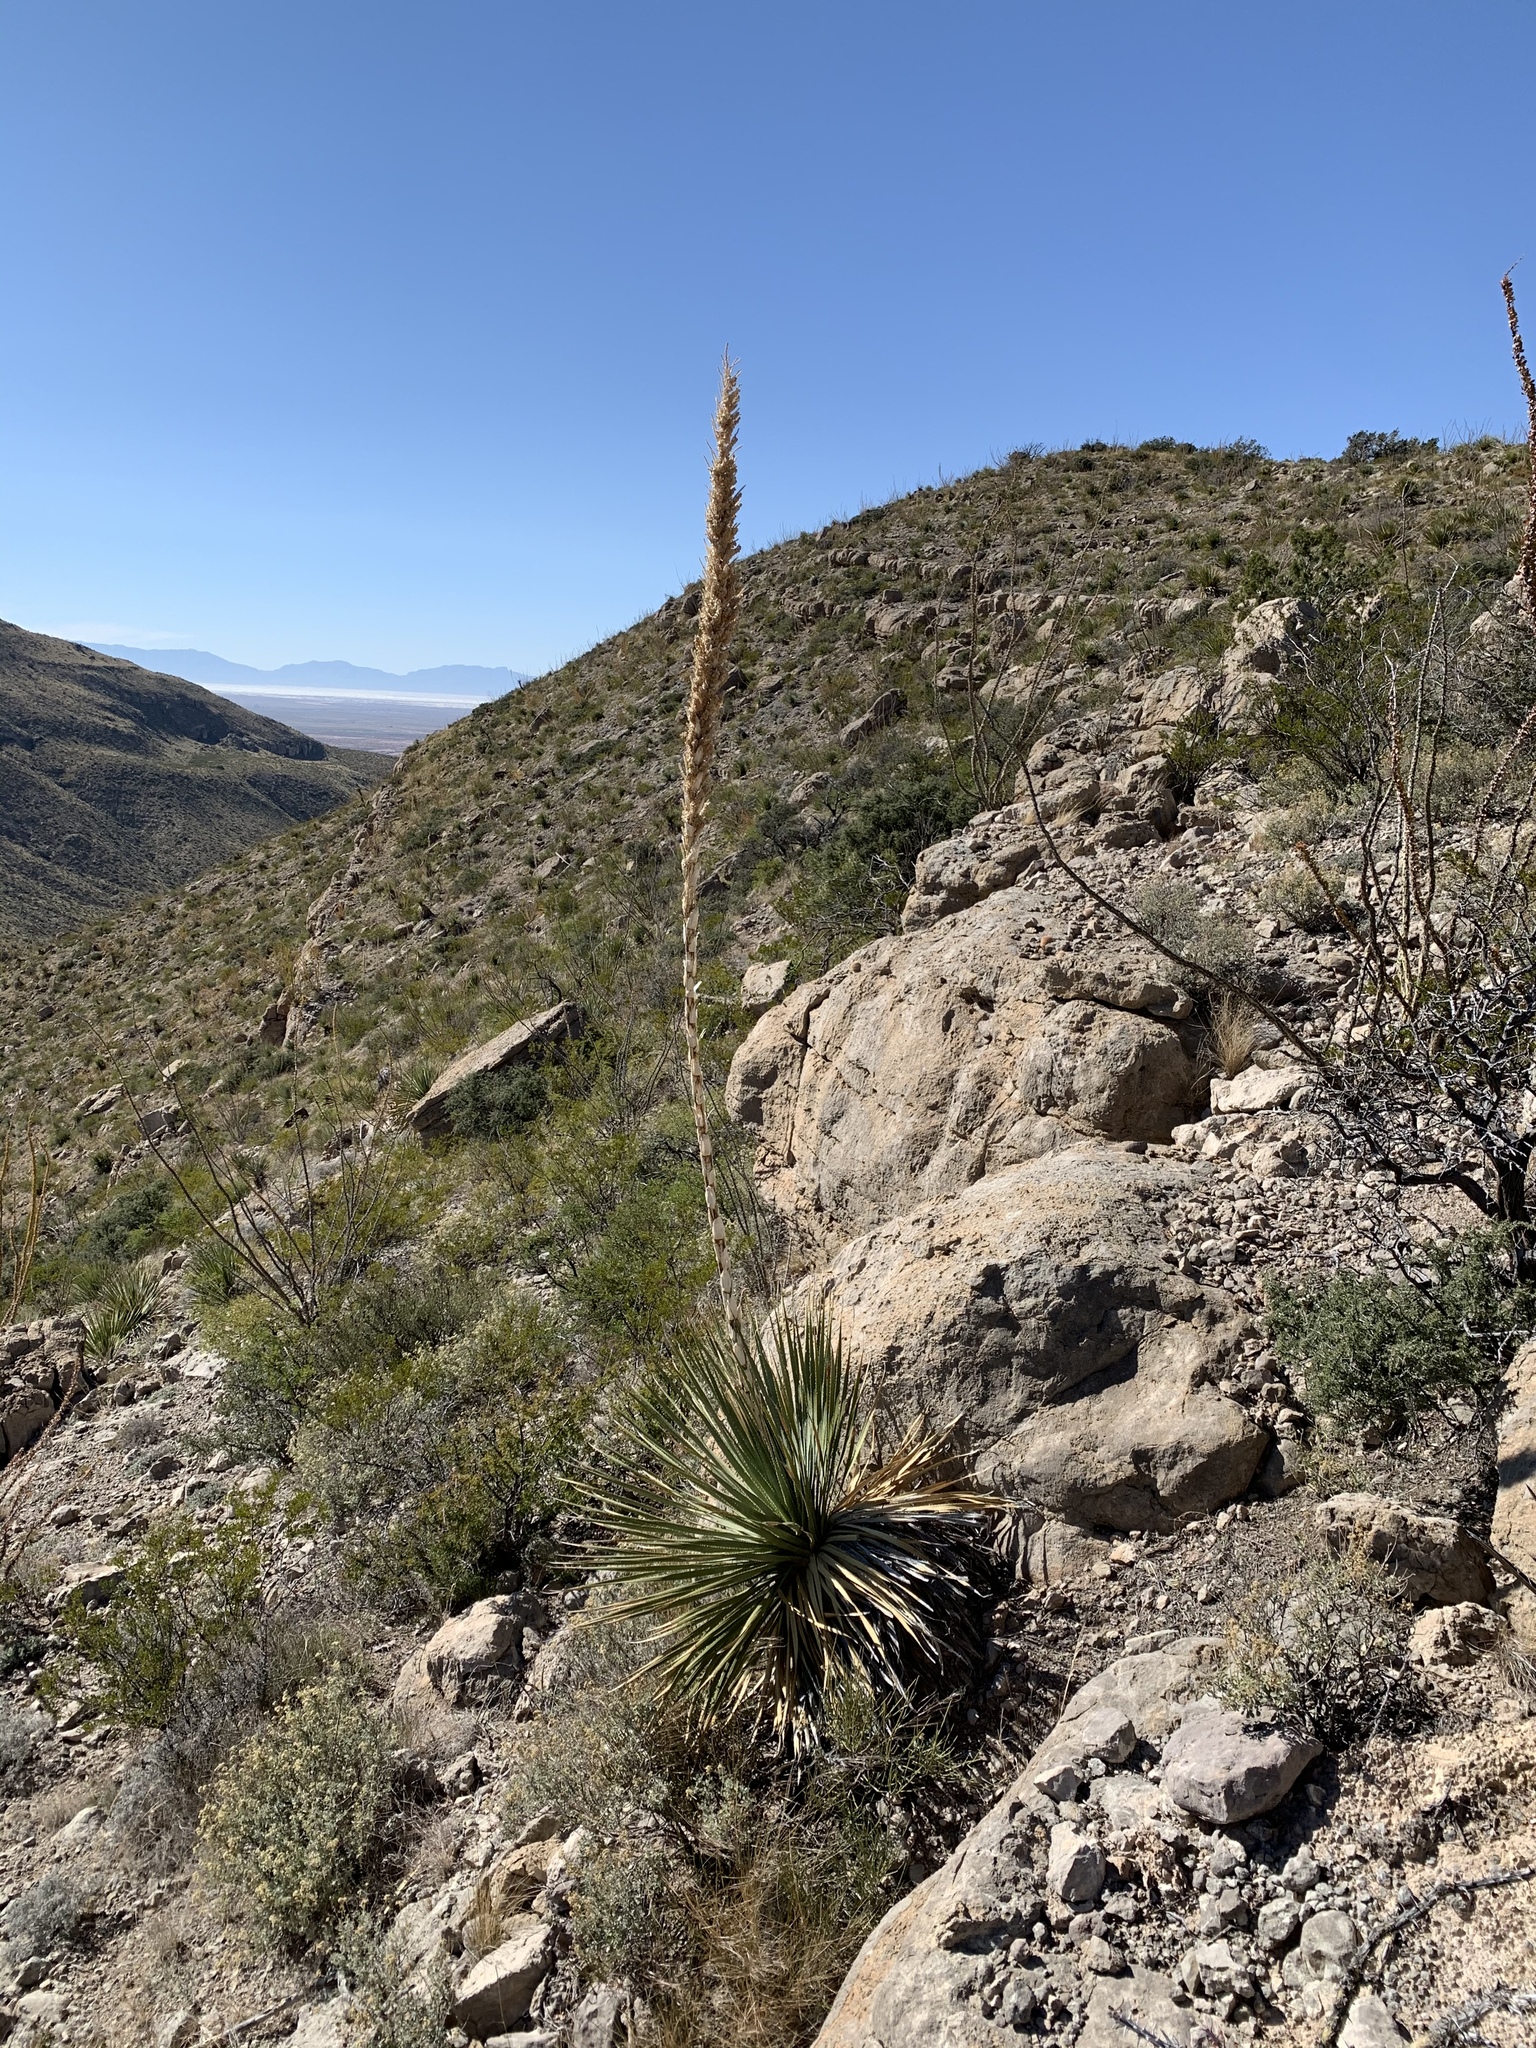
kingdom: Plantae
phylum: Tracheophyta
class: Liliopsida
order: Asparagales
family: Asparagaceae
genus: Dasylirion
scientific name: Dasylirion wheeleri
